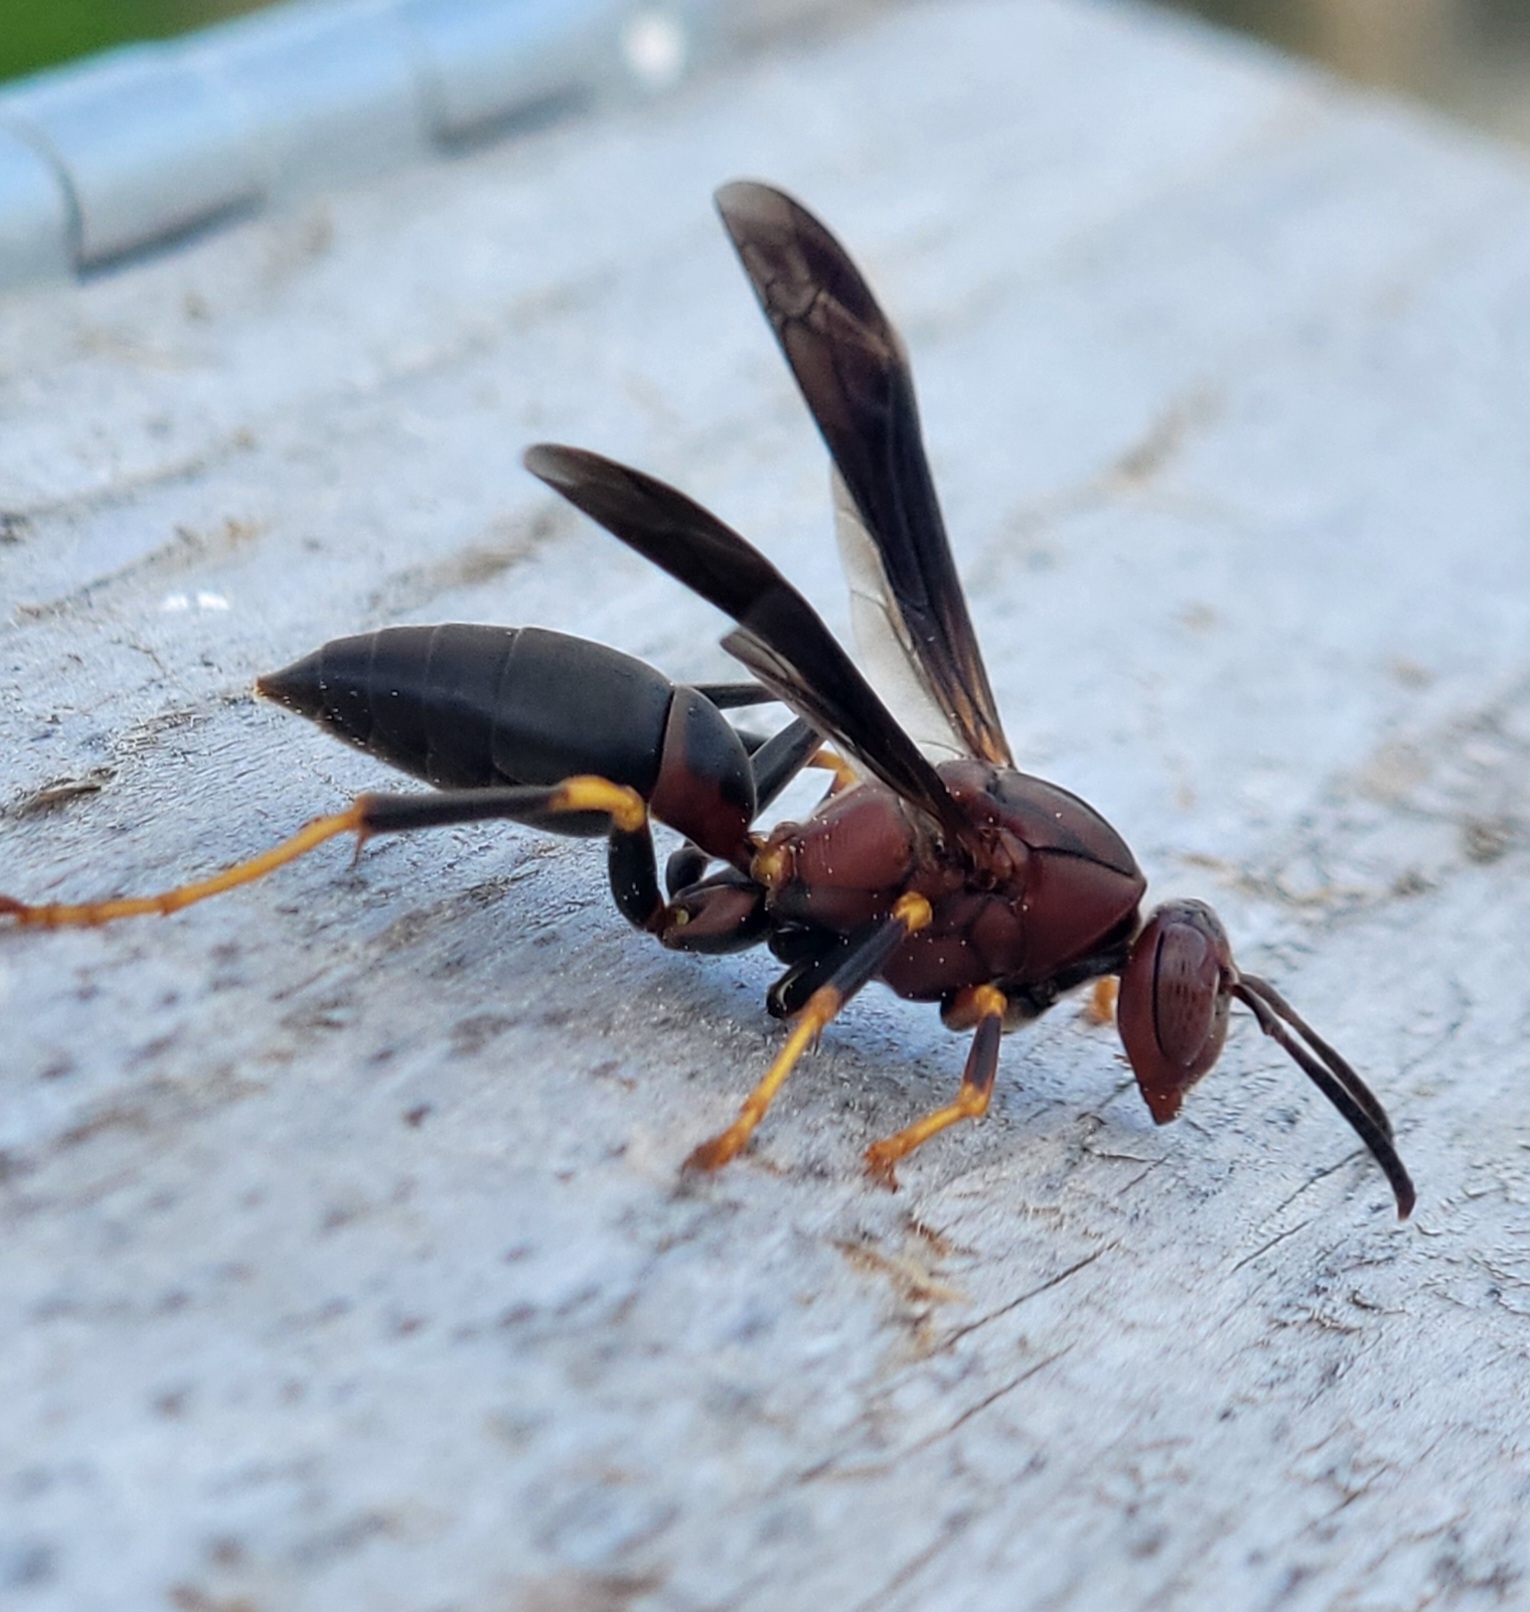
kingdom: Animalia
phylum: Arthropoda
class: Insecta
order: Hymenoptera
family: Eumenidae
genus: Polistes
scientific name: Polistes metricus
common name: Metric paper wasp
